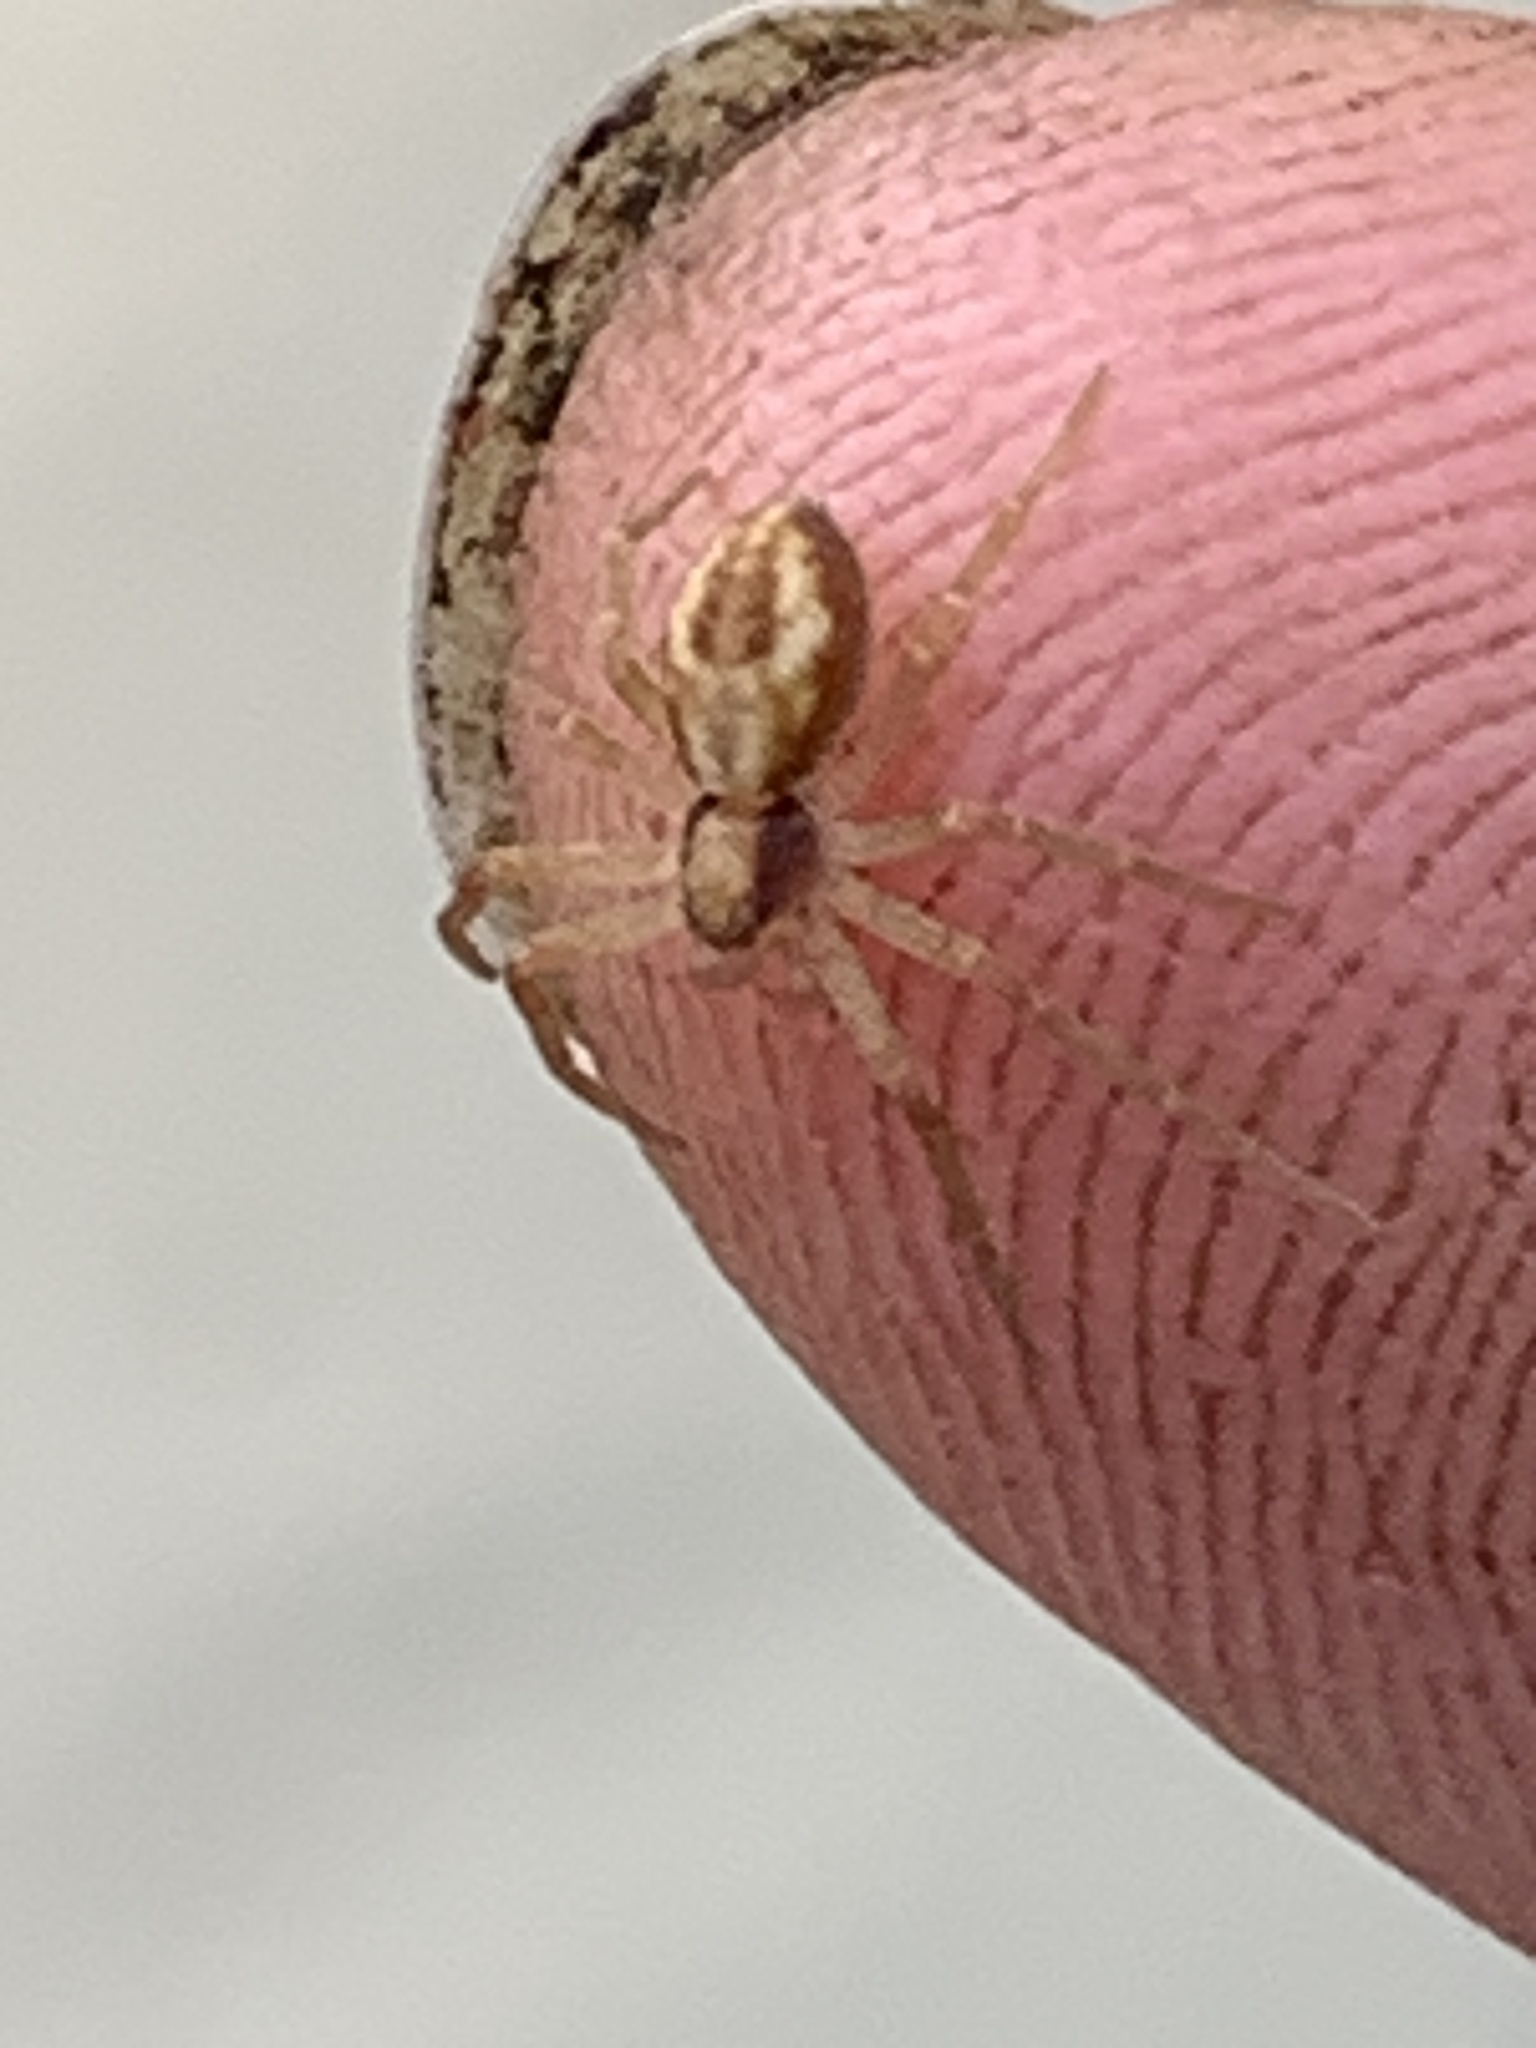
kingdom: Animalia
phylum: Arthropoda
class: Arachnida
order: Araneae
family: Philodromidae
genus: Philodromus
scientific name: Philodromus
